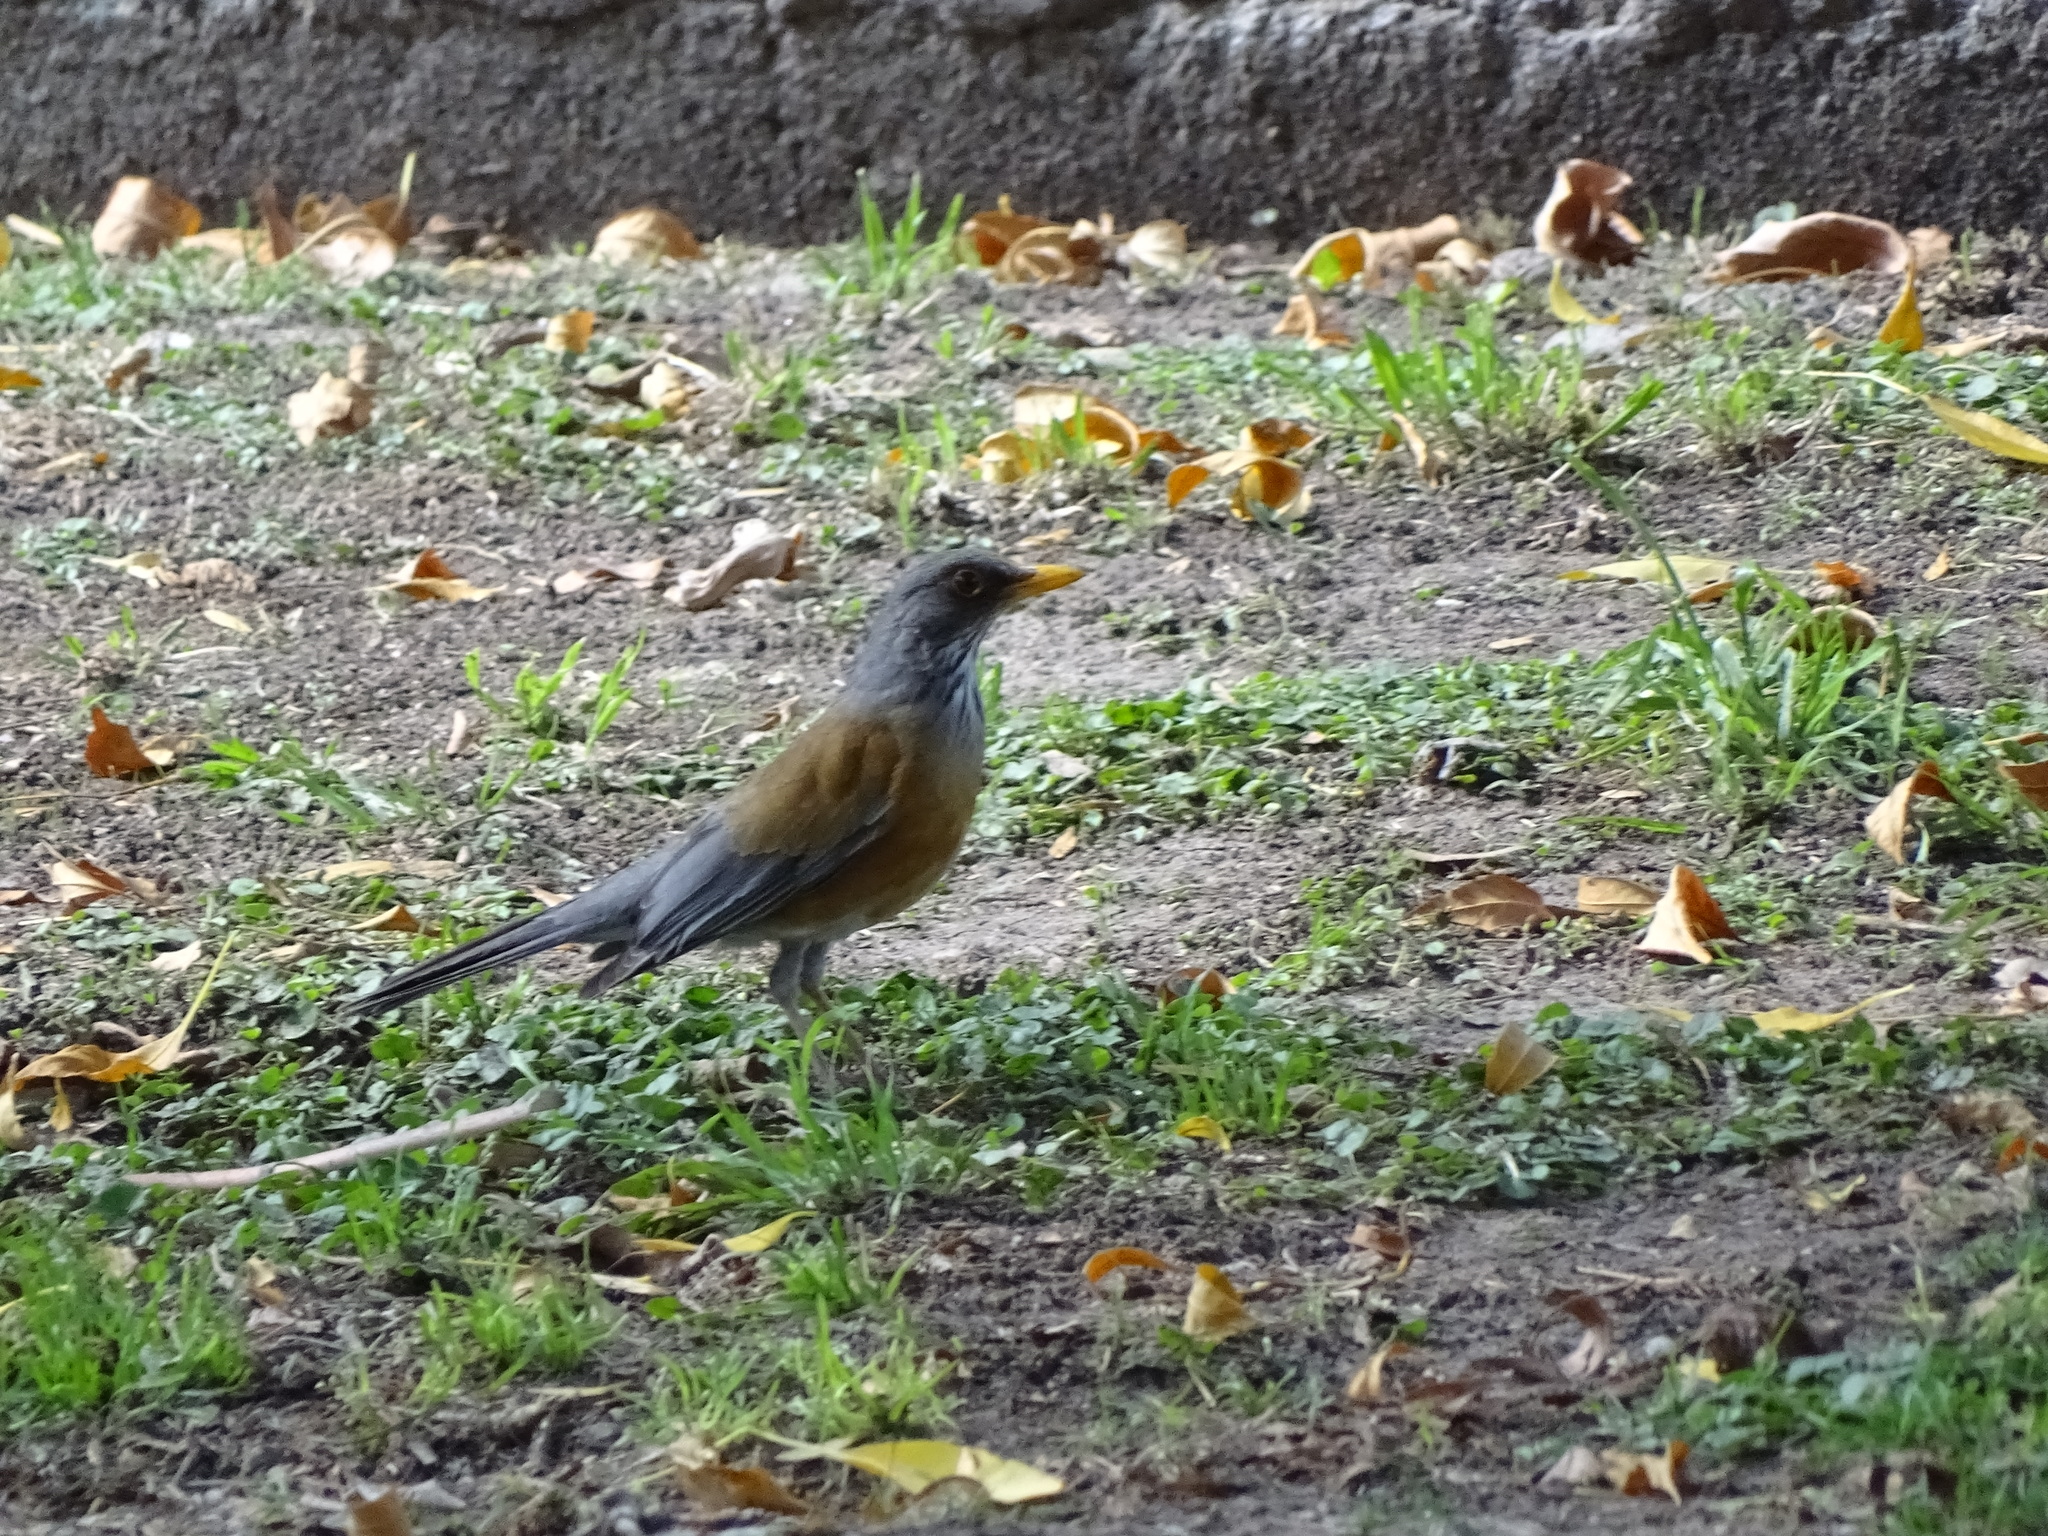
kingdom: Animalia
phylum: Chordata
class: Aves
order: Passeriformes
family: Turdidae
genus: Turdus
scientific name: Turdus rufopalliatus
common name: Rufous-backed robin
